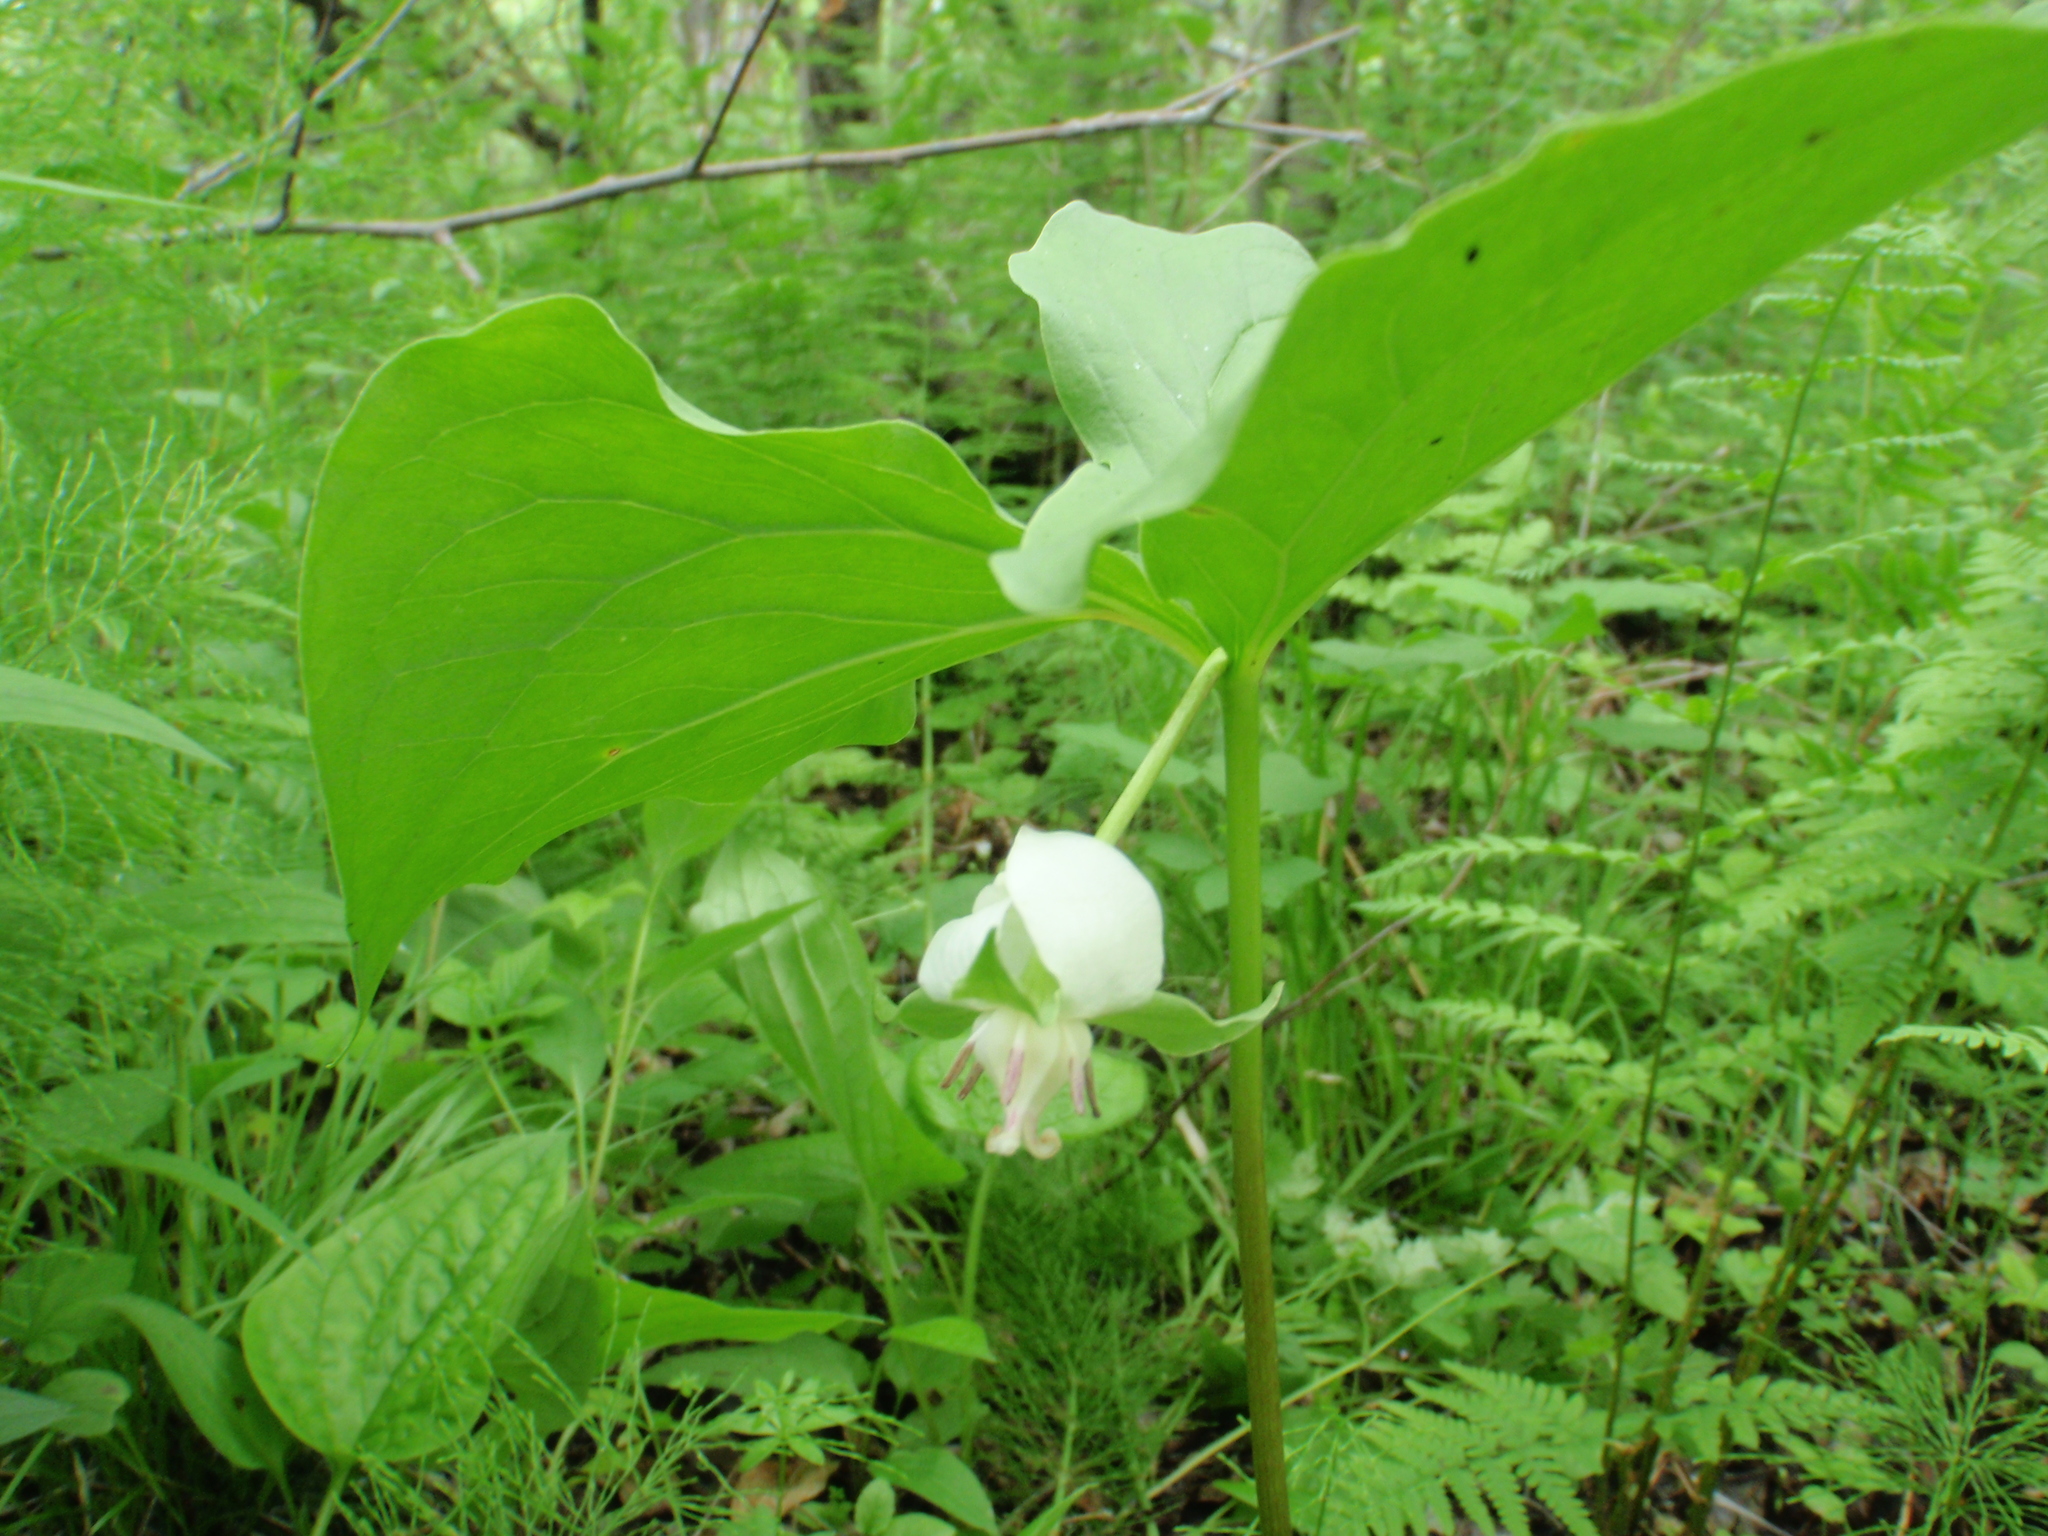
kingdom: Plantae
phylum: Tracheophyta
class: Liliopsida
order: Liliales
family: Melanthiaceae
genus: Trillium
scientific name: Trillium cernuum
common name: Nodding trillium
